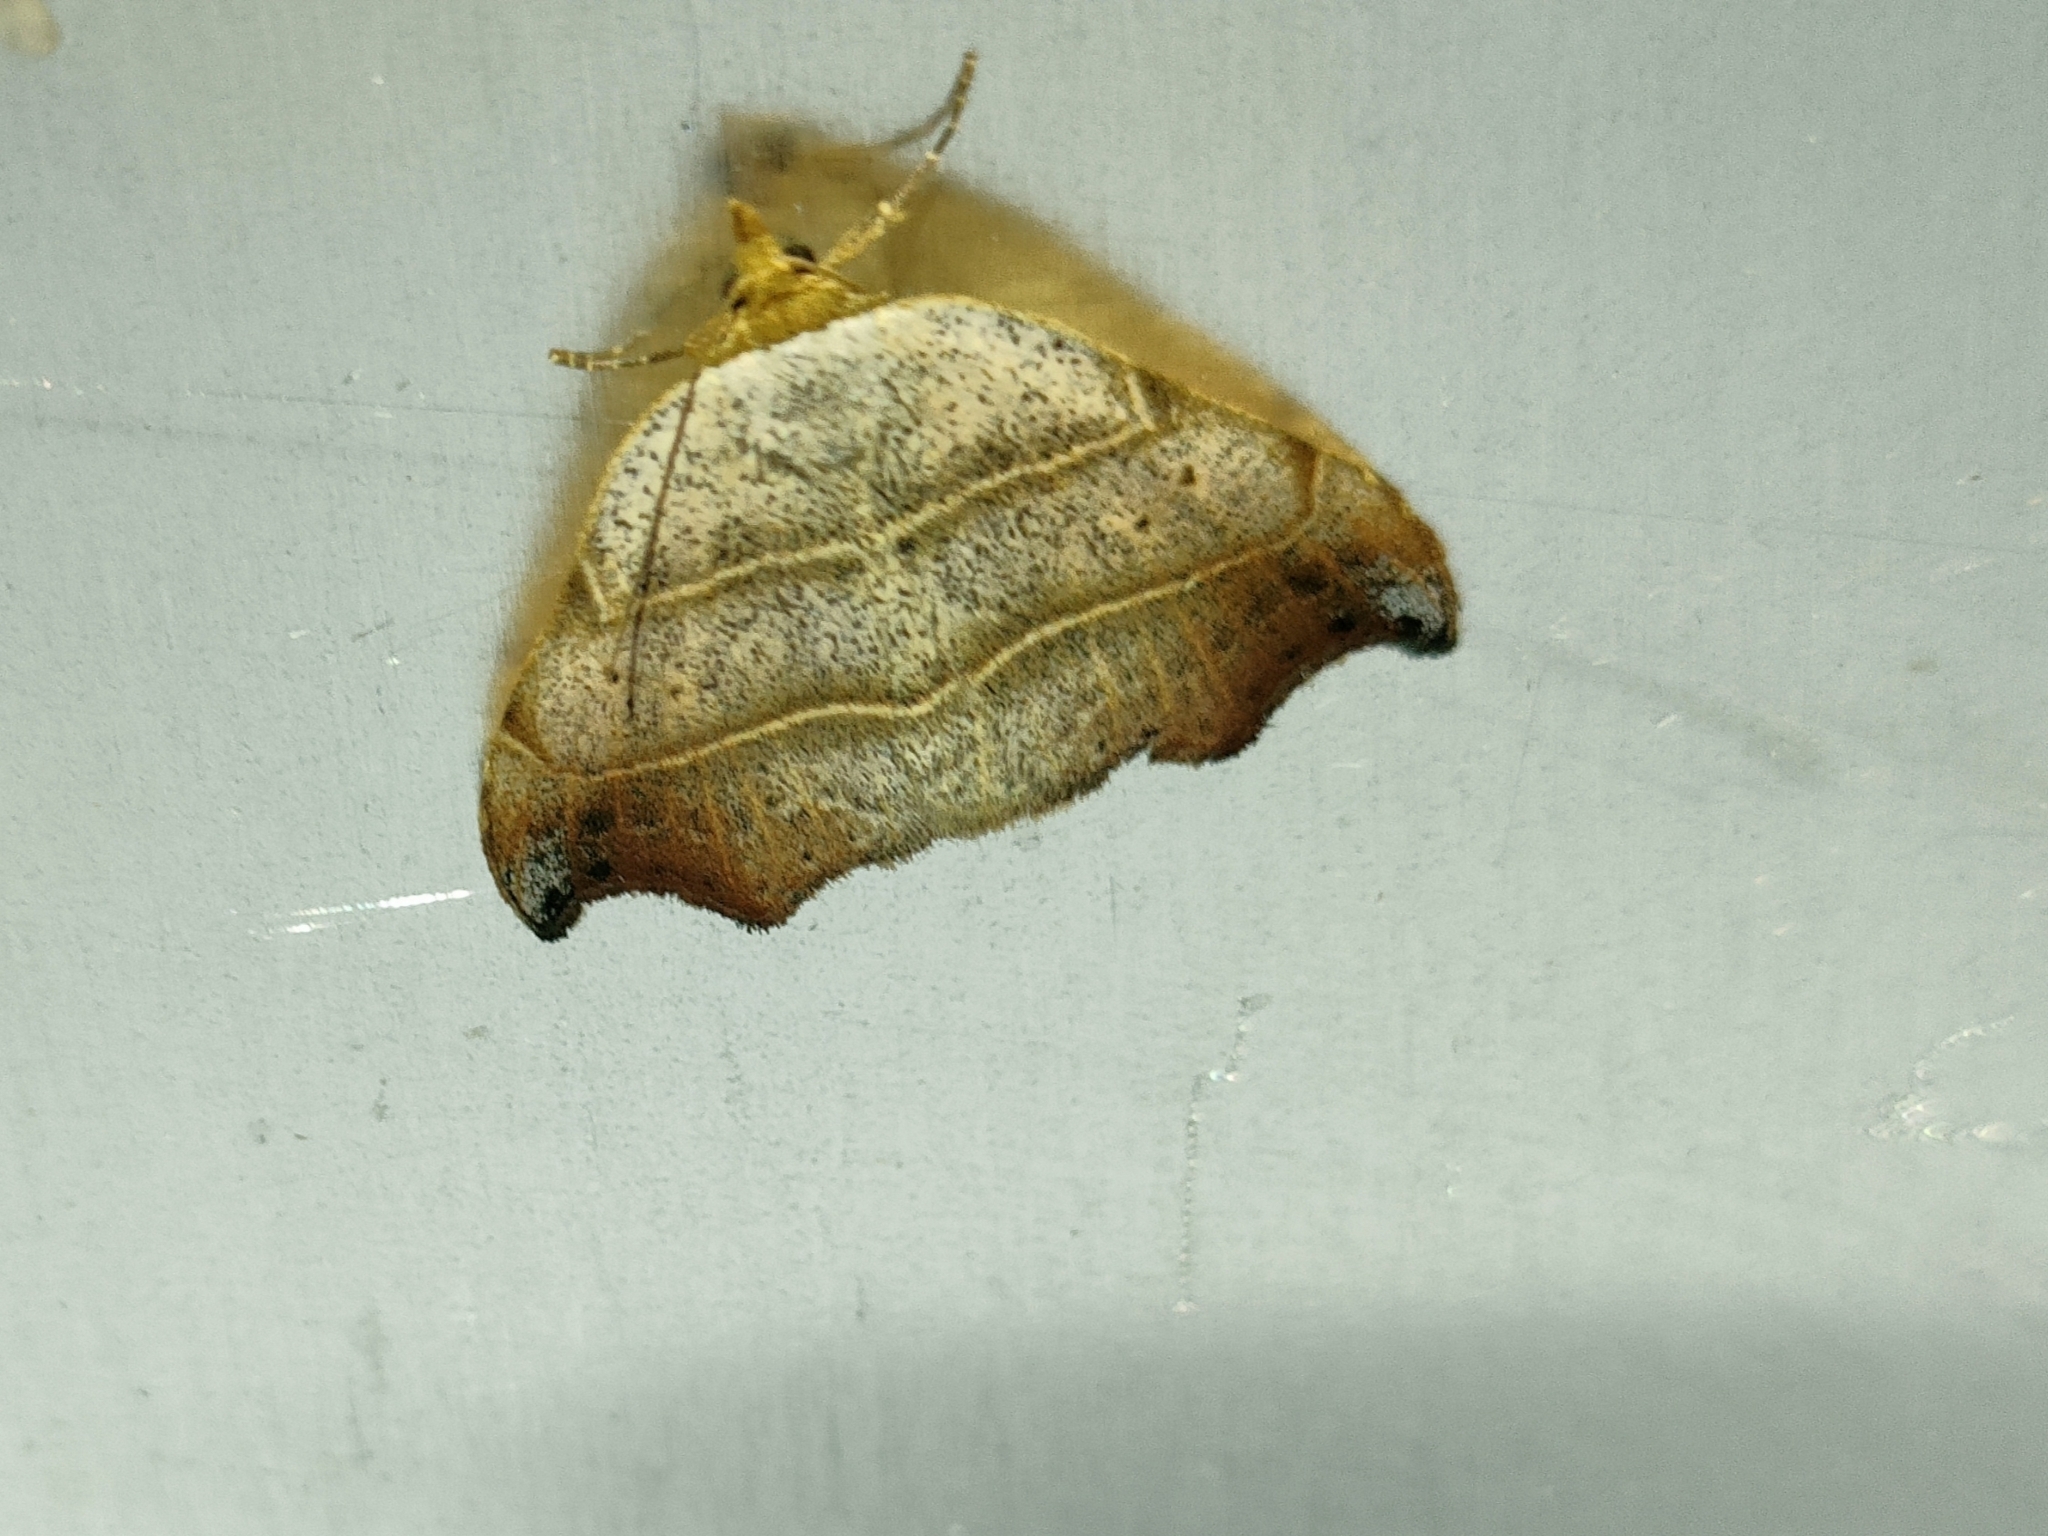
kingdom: Animalia
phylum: Arthropoda
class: Insecta
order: Lepidoptera
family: Erebidae
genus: Laspeyria
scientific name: Laspeyria flexula
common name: Beautiful hook-tip
